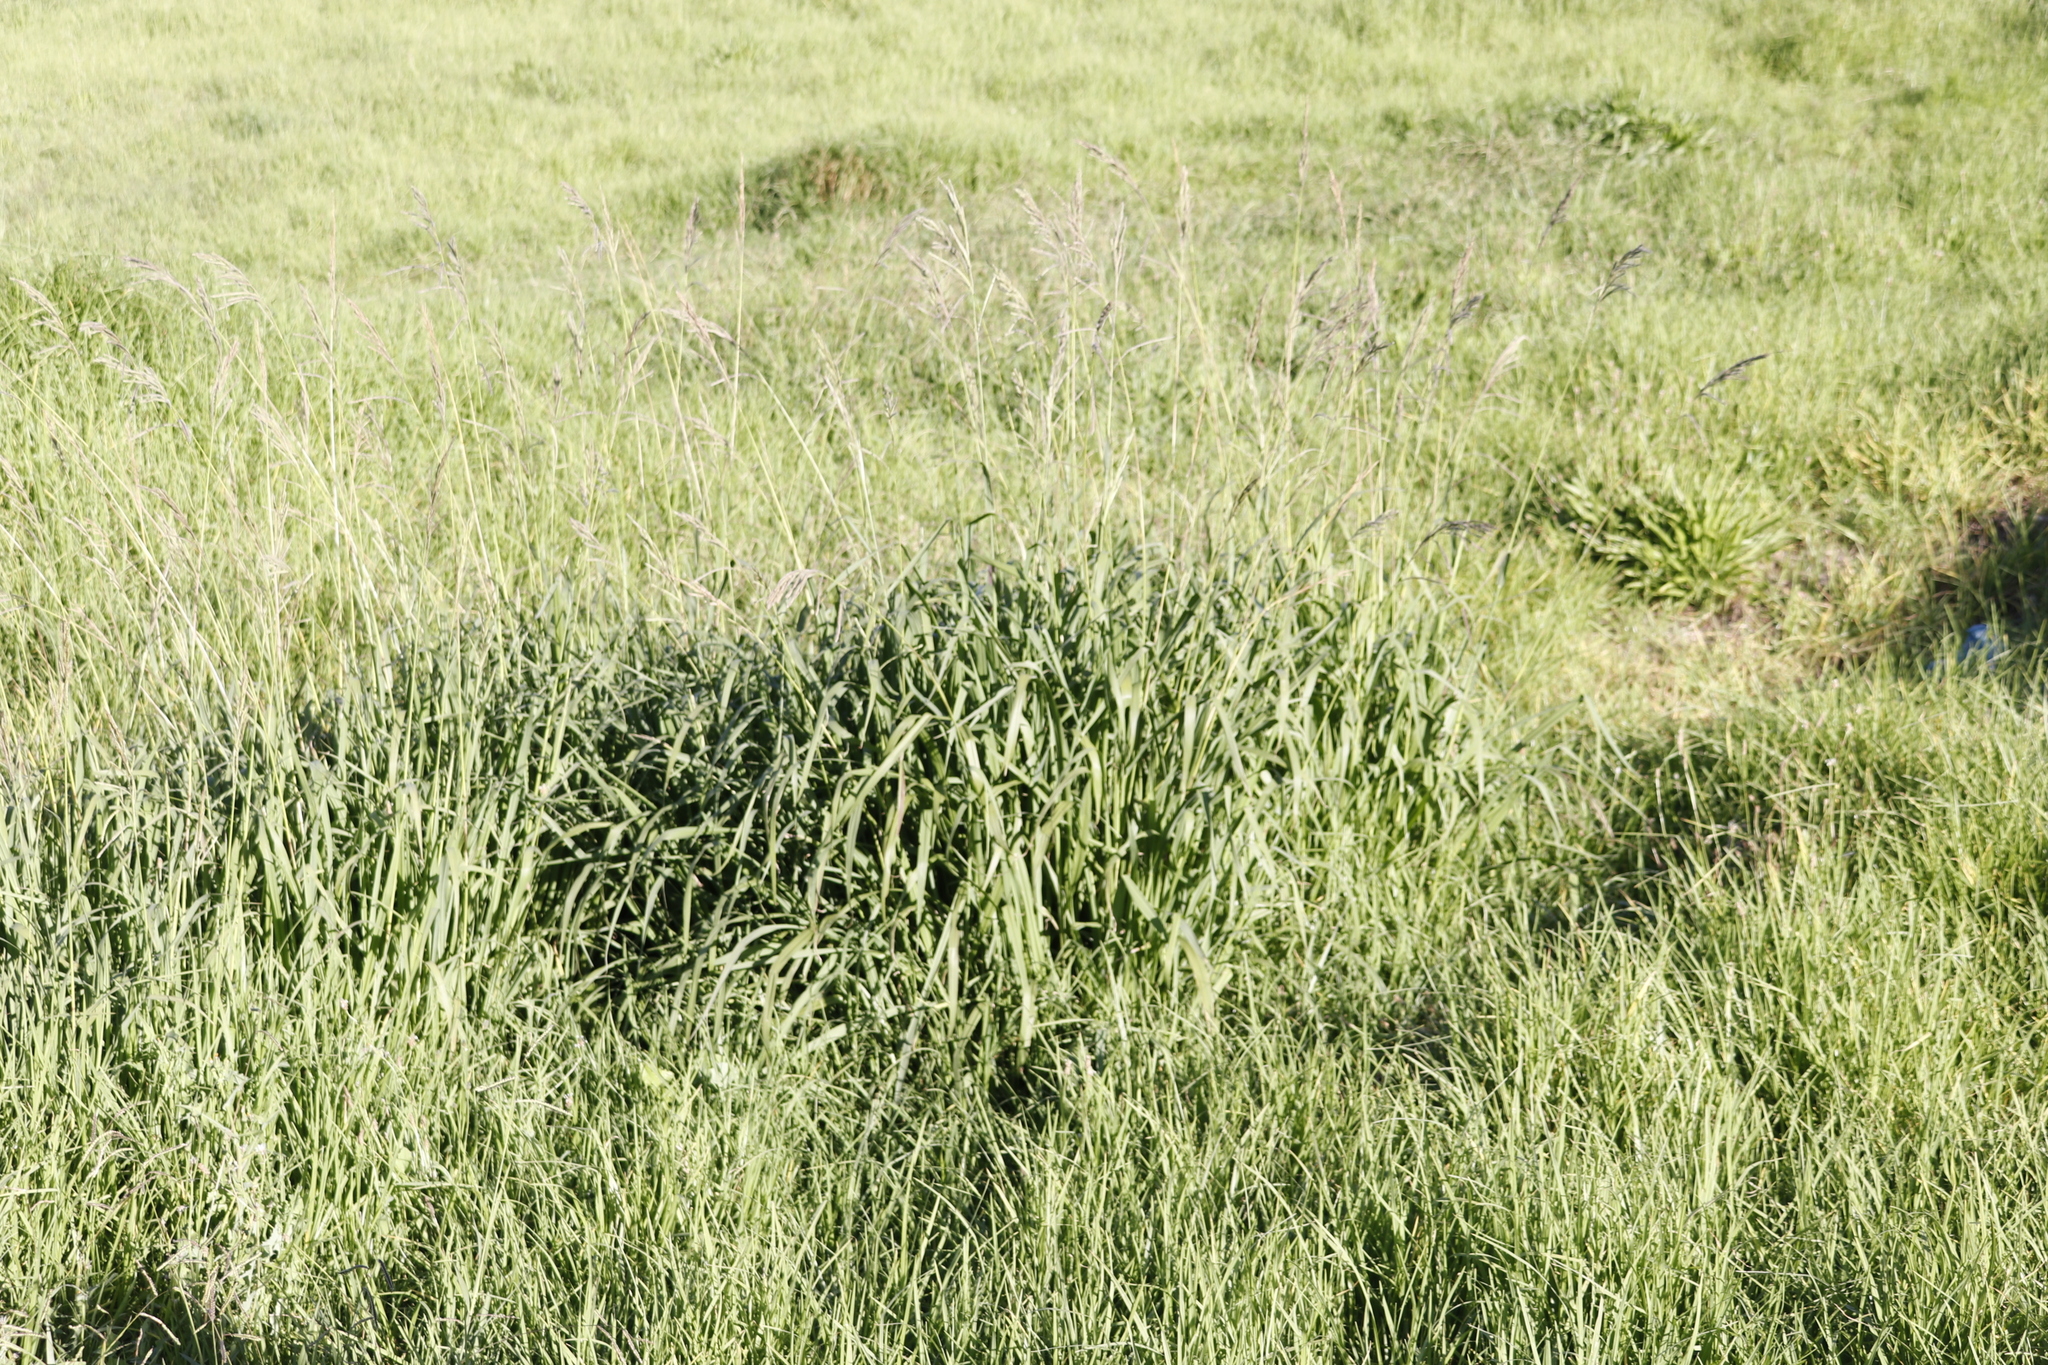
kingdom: Plantae
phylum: Tracheophyta
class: Magnoliopsida
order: Lamiales
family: Plantaginaceae
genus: Plantago
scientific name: Plantago lanceolata
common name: Ribwort plantain
